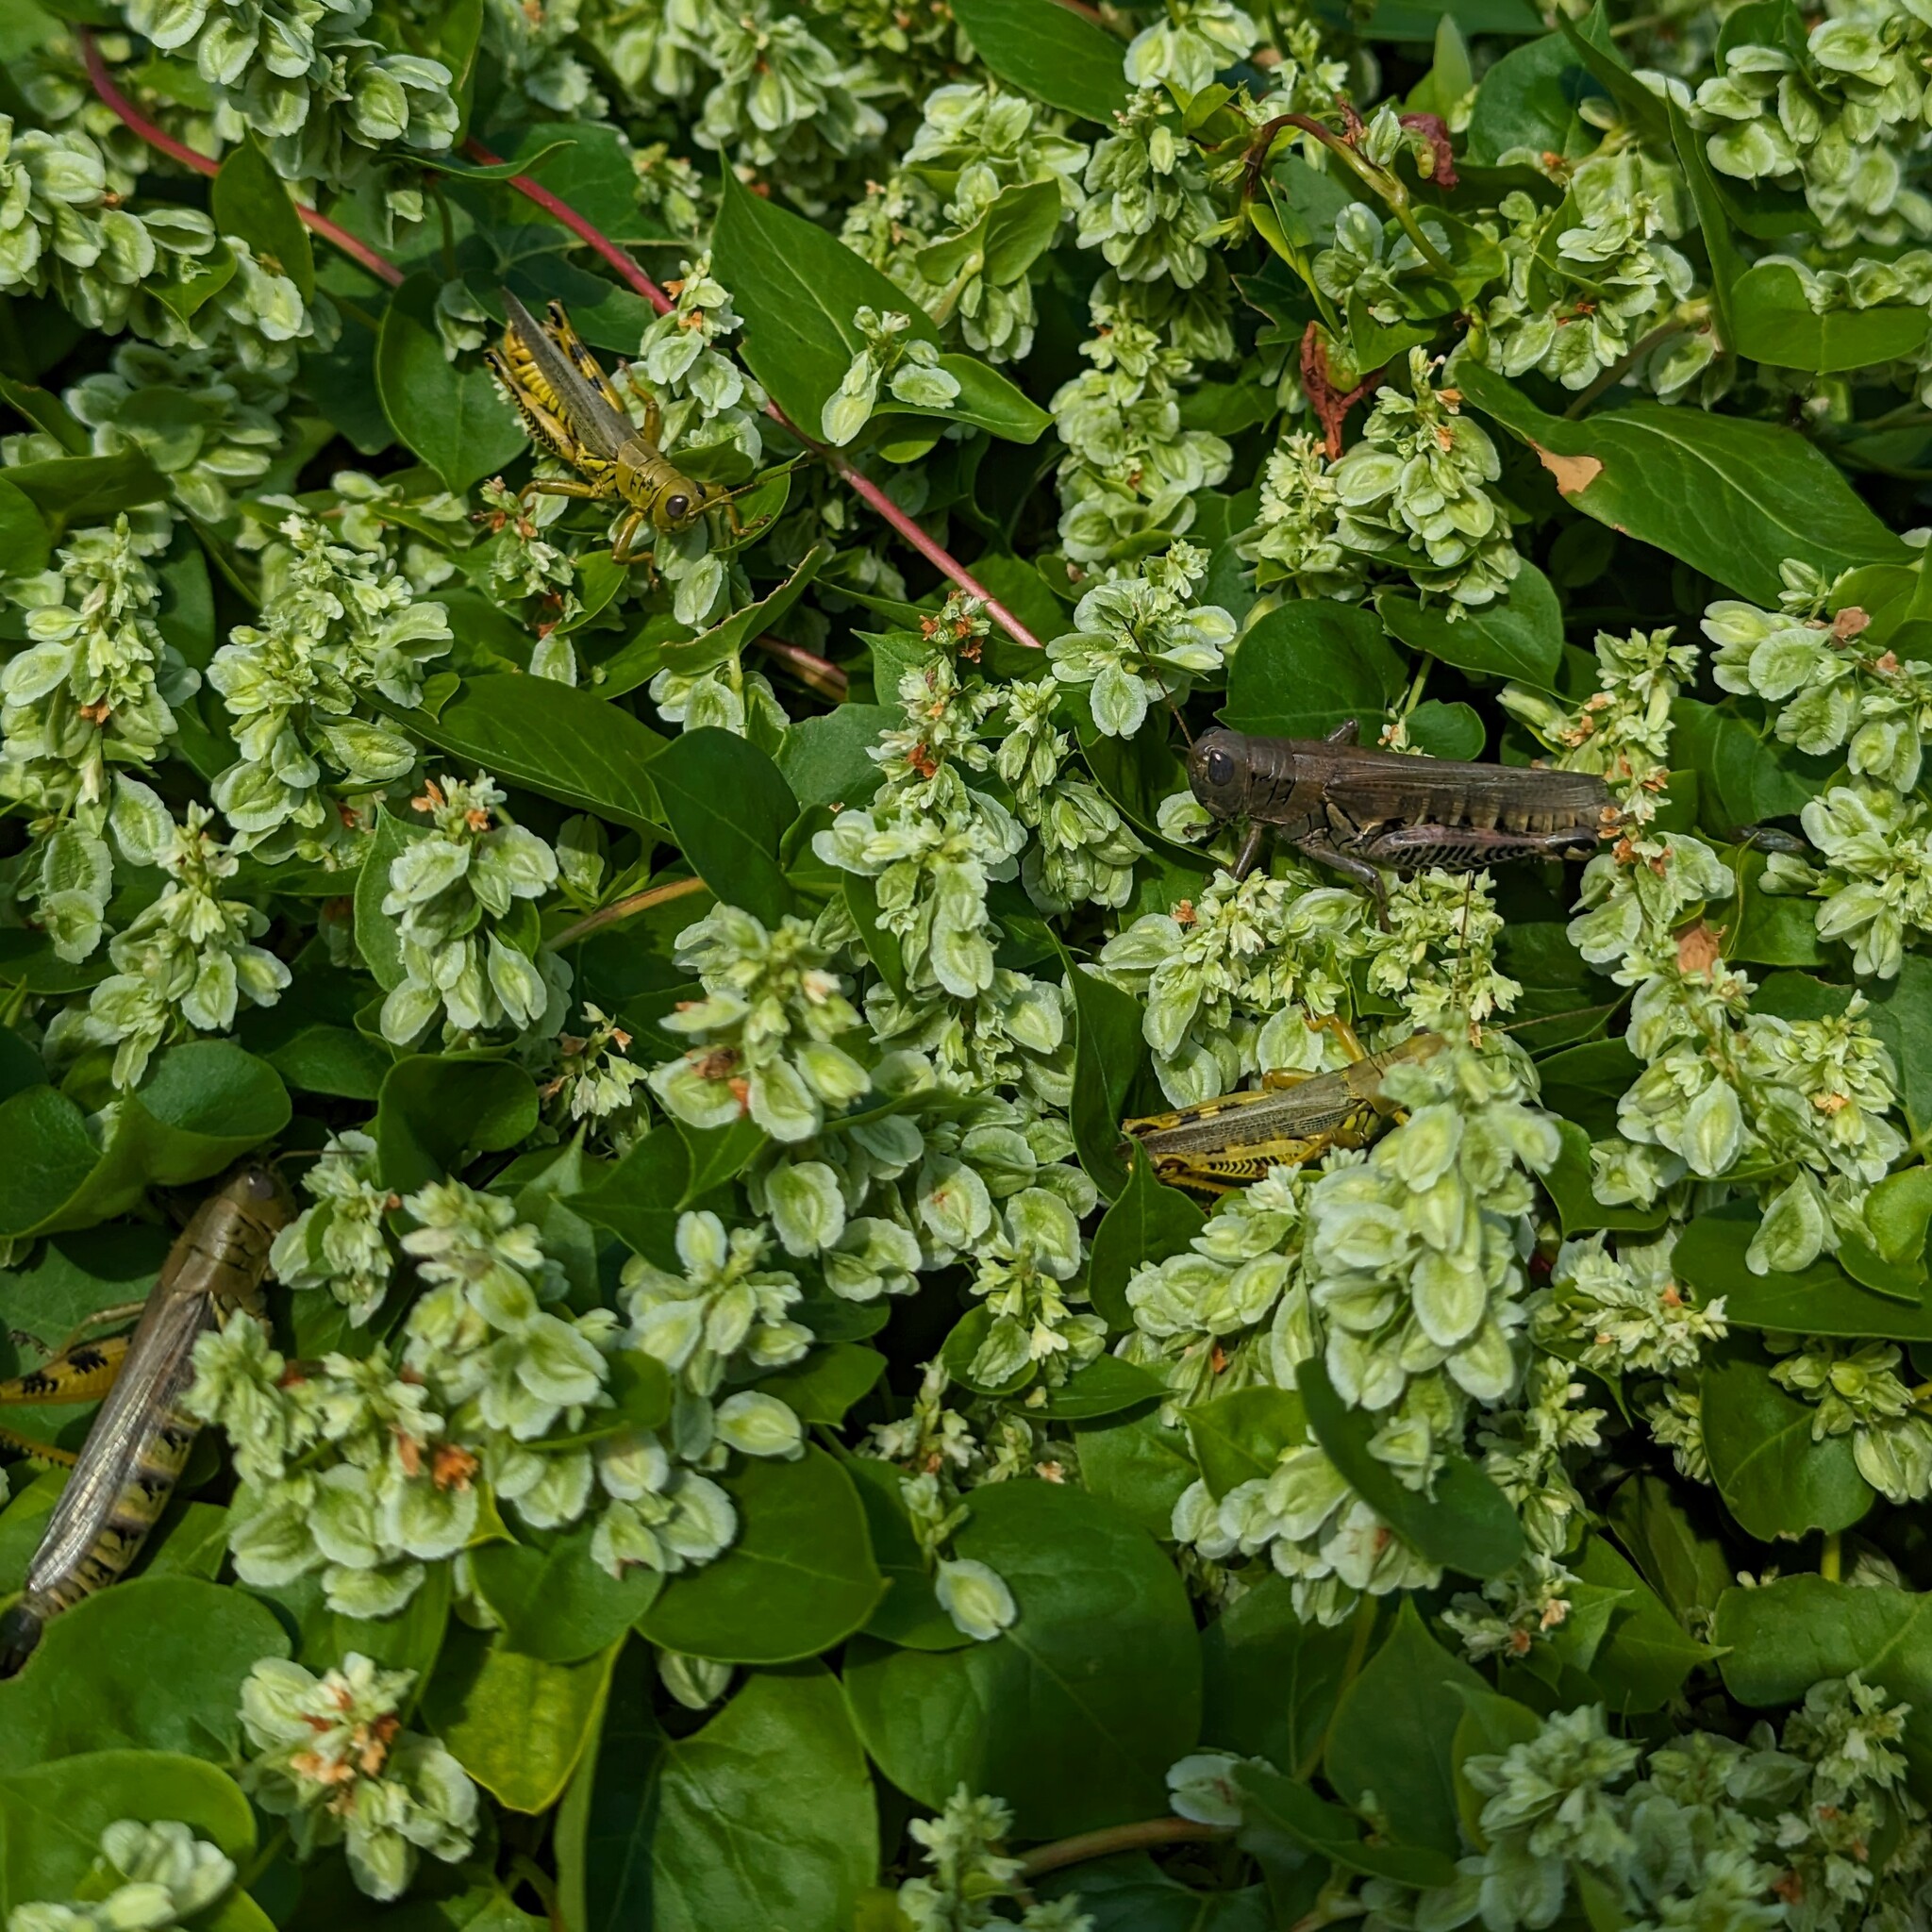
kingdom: Animalia
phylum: Arthropoda
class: Insecta
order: Orthoptera
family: Acrididae
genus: Melanoplus
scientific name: Melanoplus differentialis
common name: Differential grasshopper
